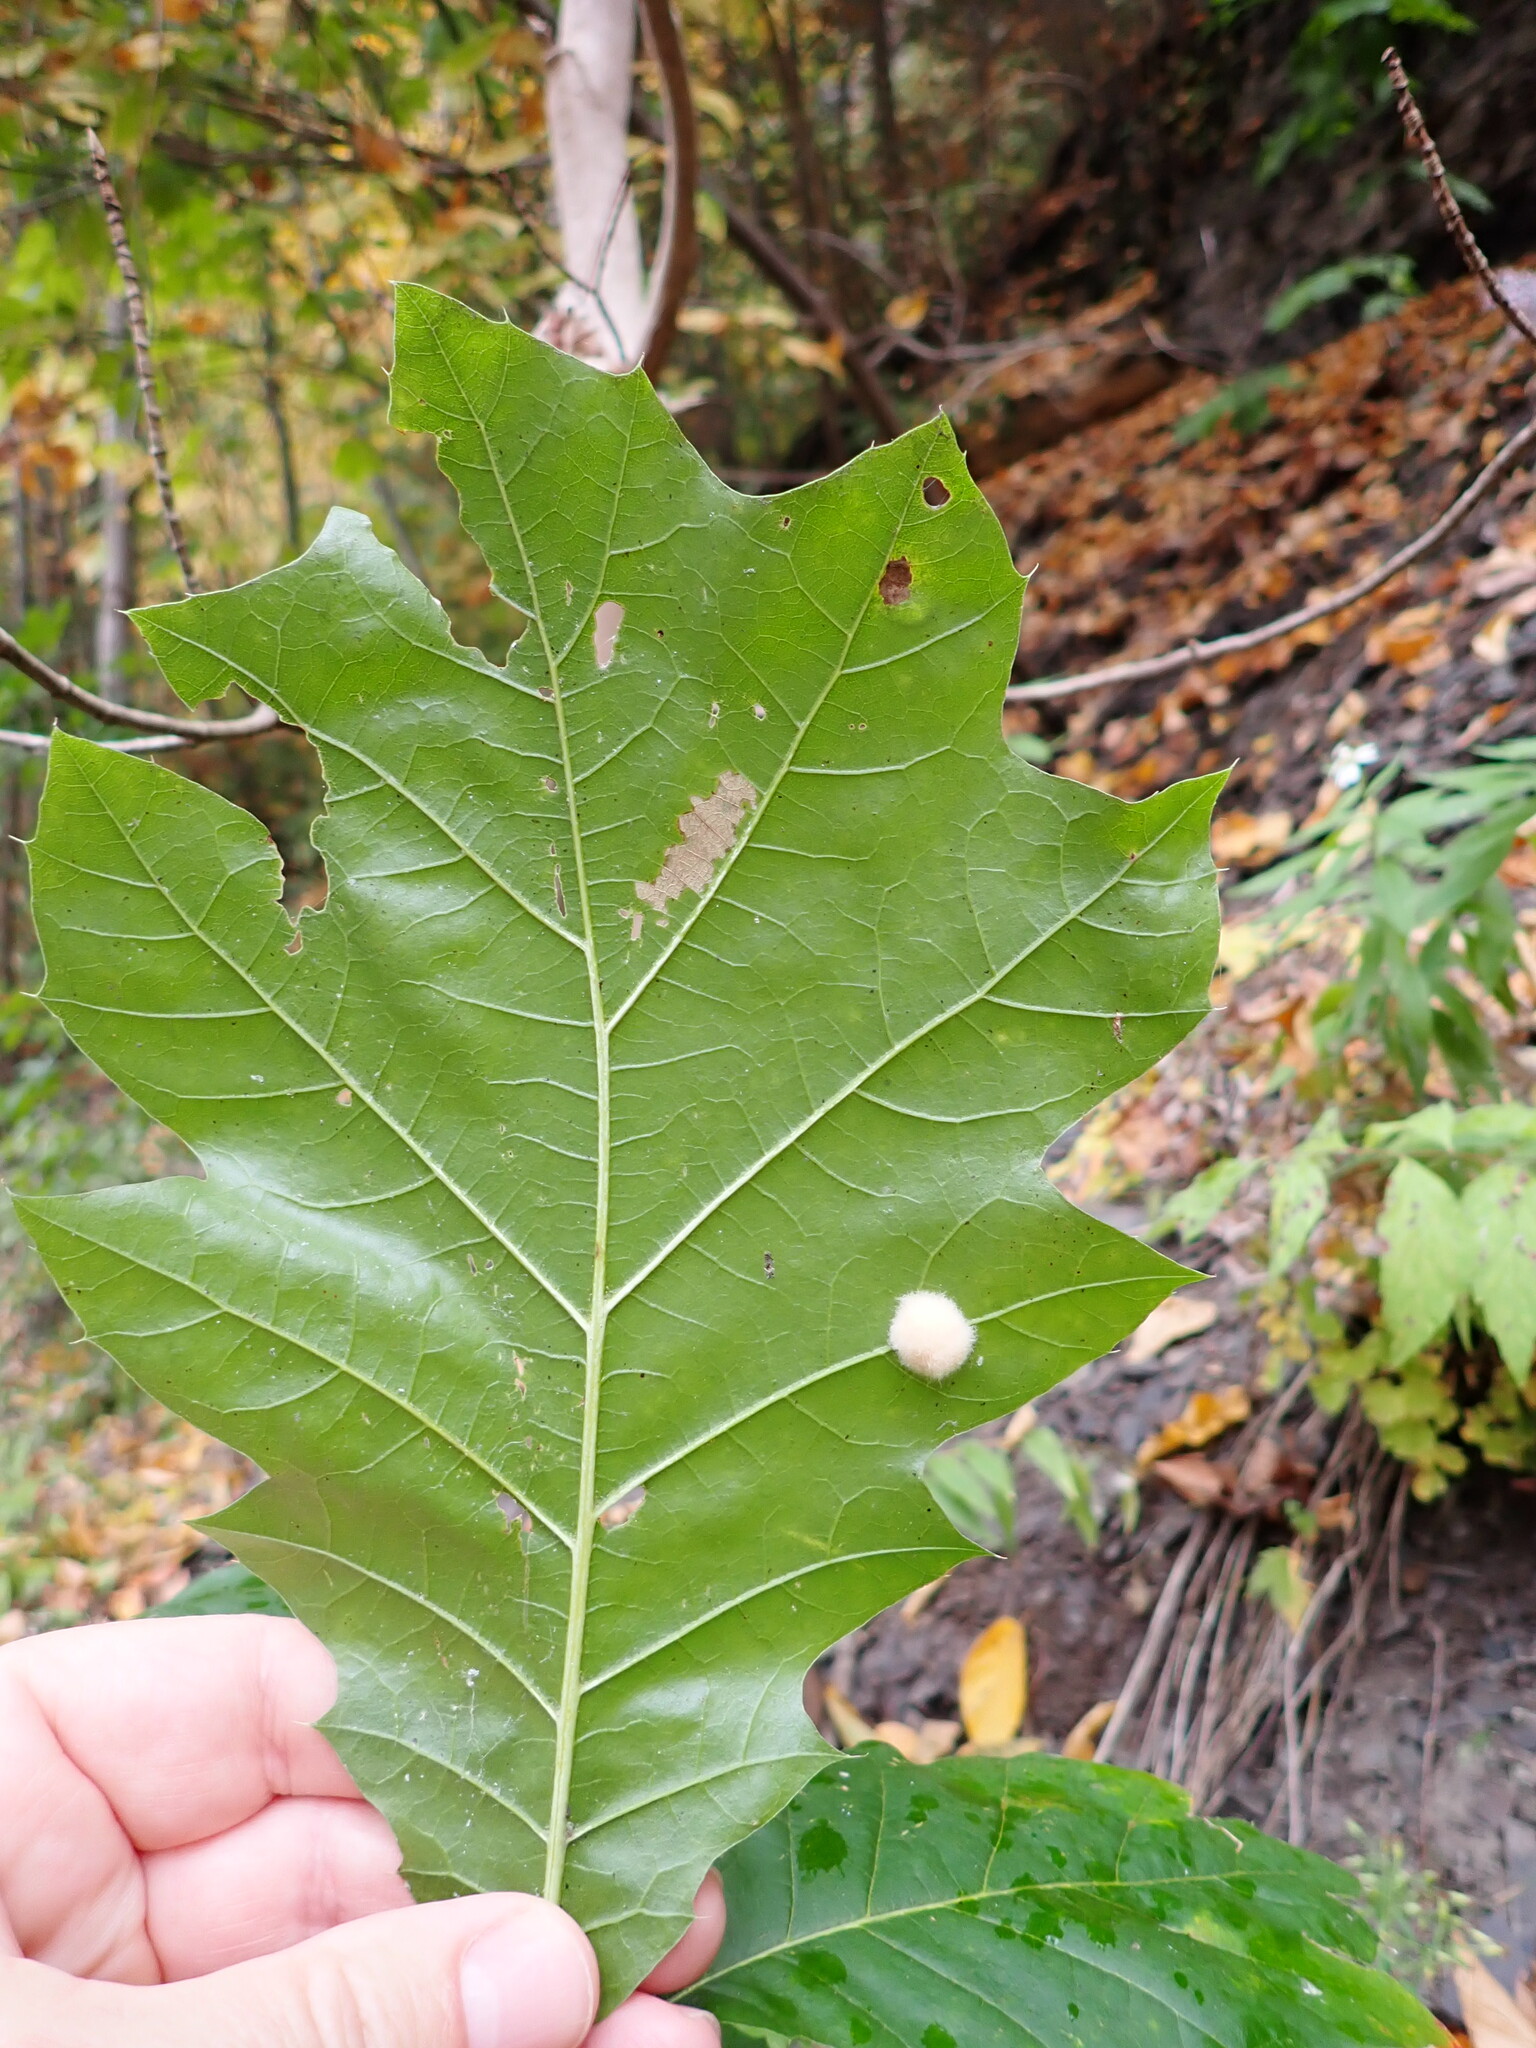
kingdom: Animalia
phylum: Arthropoda
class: Insecta
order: Hymenoptera
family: Cynipidae
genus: Callirhytis
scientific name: Callirhytis
